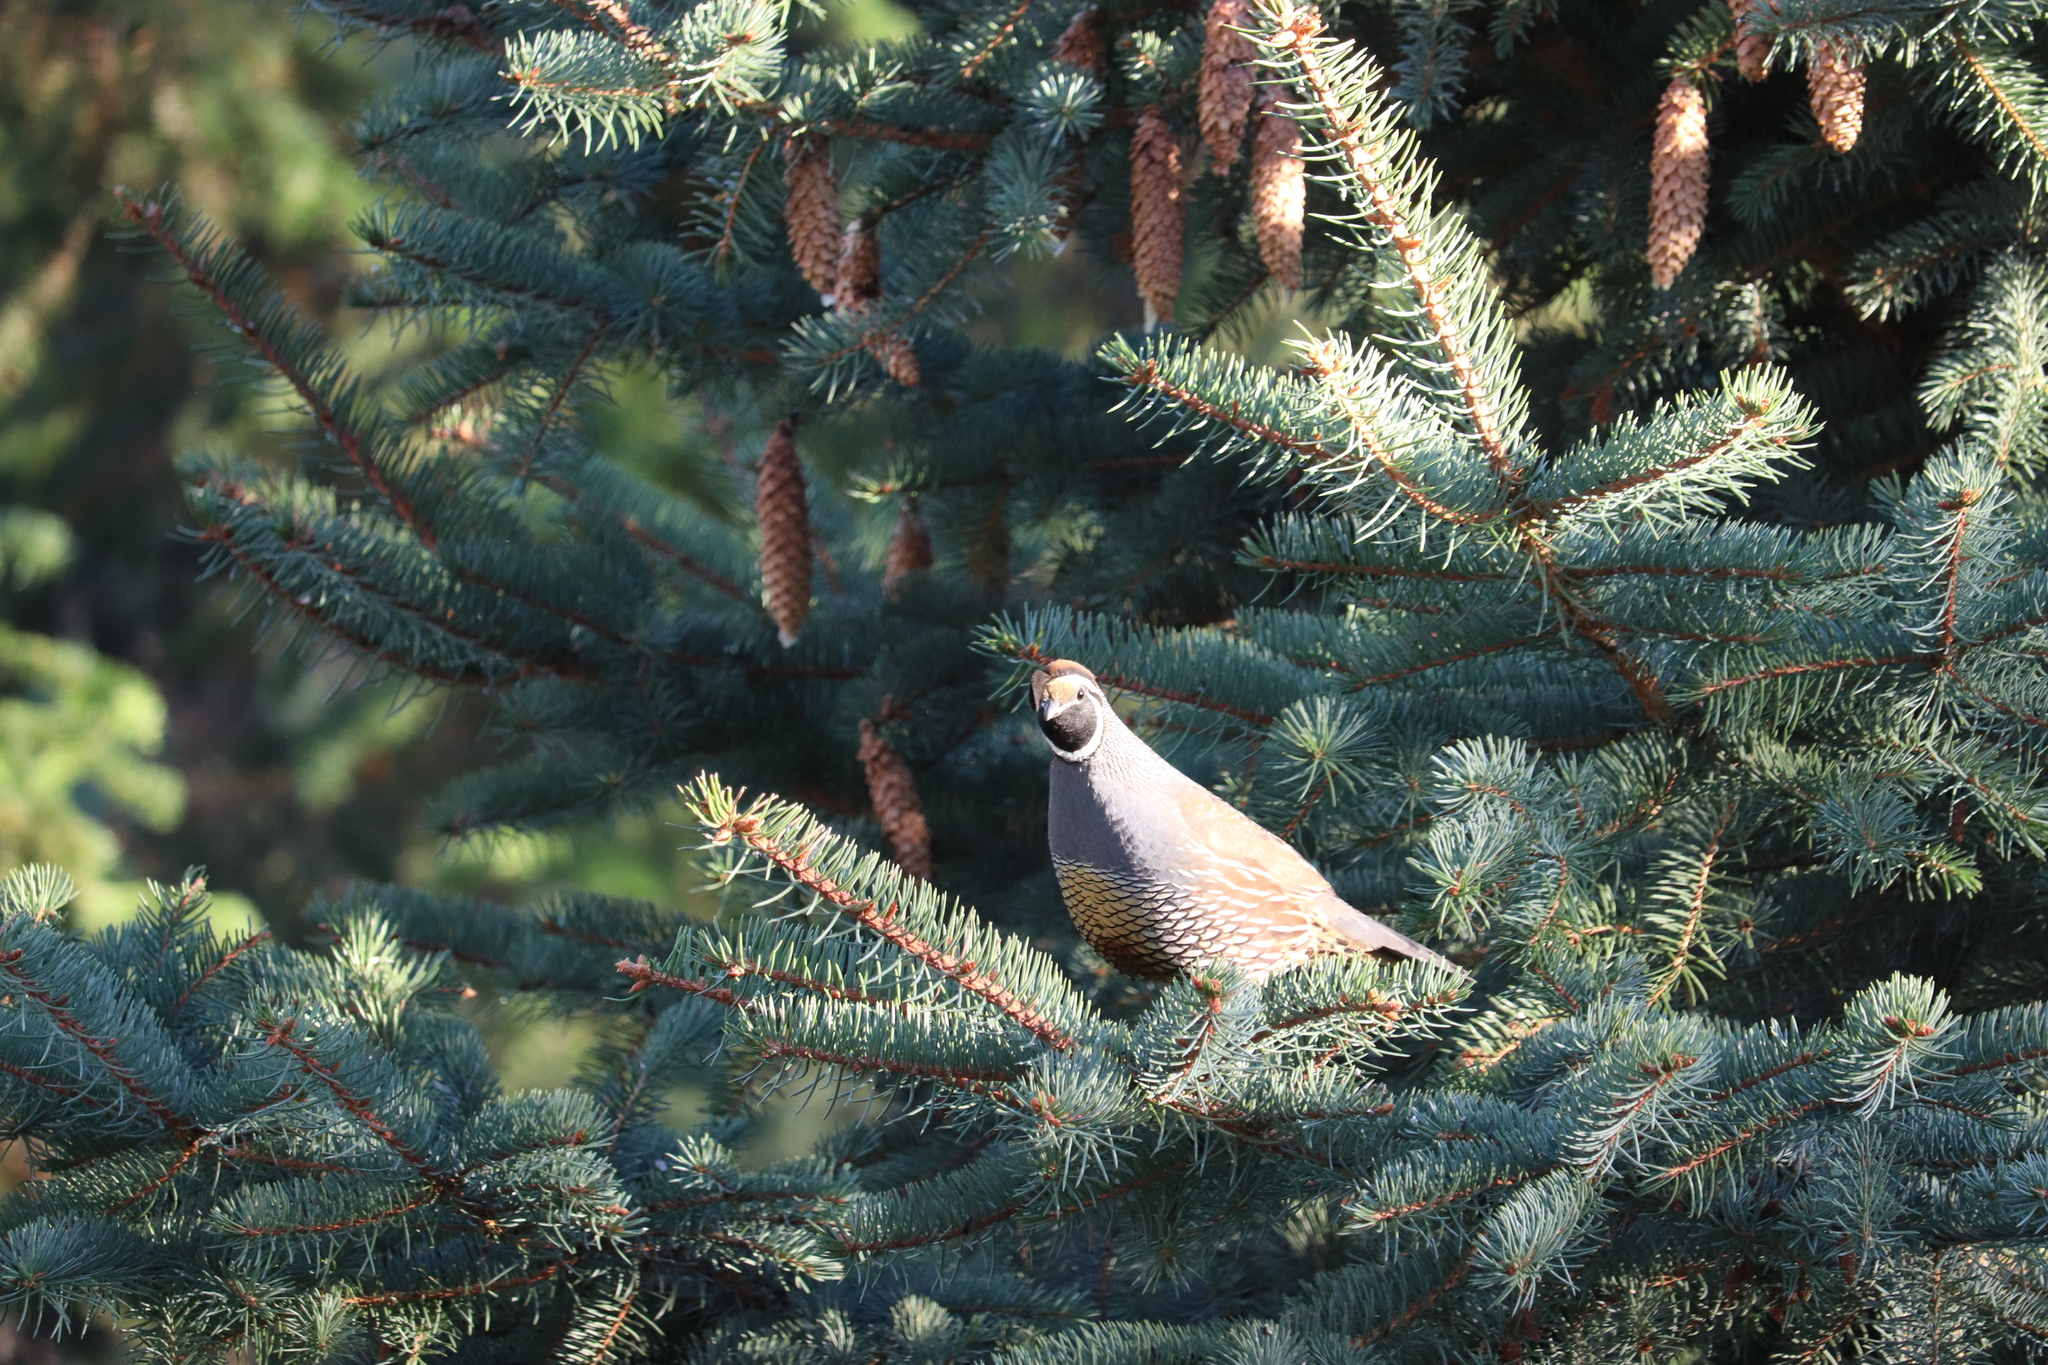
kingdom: Animalia
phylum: Chordata
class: Aves
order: Galliformes
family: Odontophoridae
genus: Callipepla
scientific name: Callipepla californica
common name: California quail
